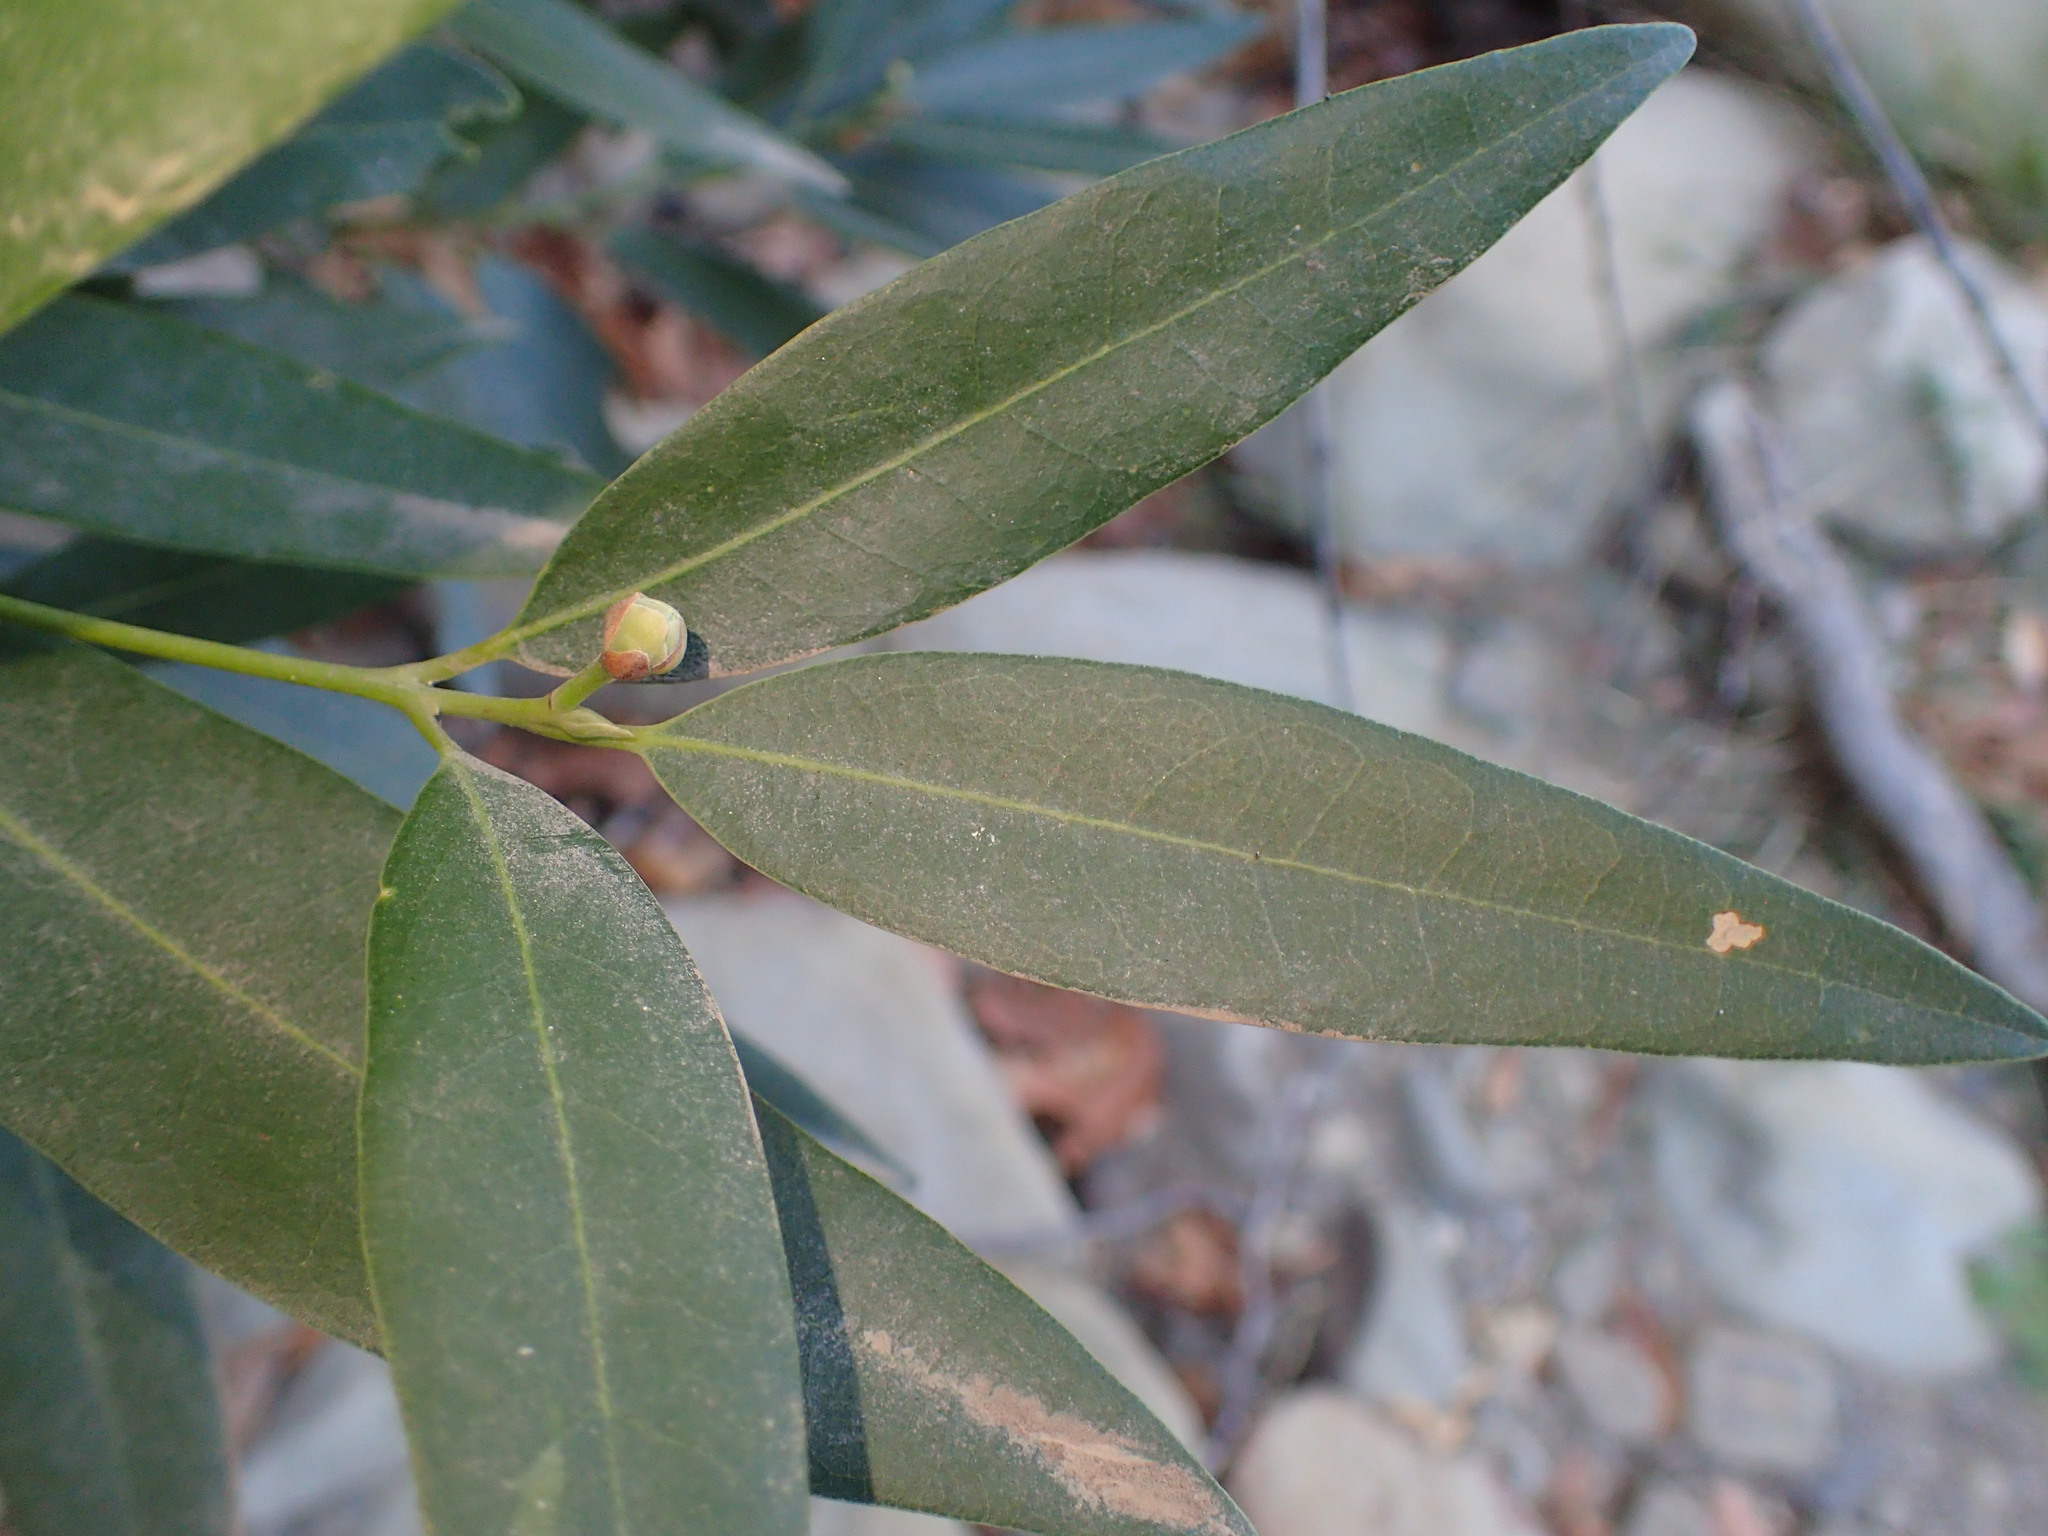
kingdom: Plantae
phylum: Tracheophyta
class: Magnoliopsida
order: Laurales
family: Lauraceae
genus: Umbellularia
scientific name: Umbellularia californica
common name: California bay
